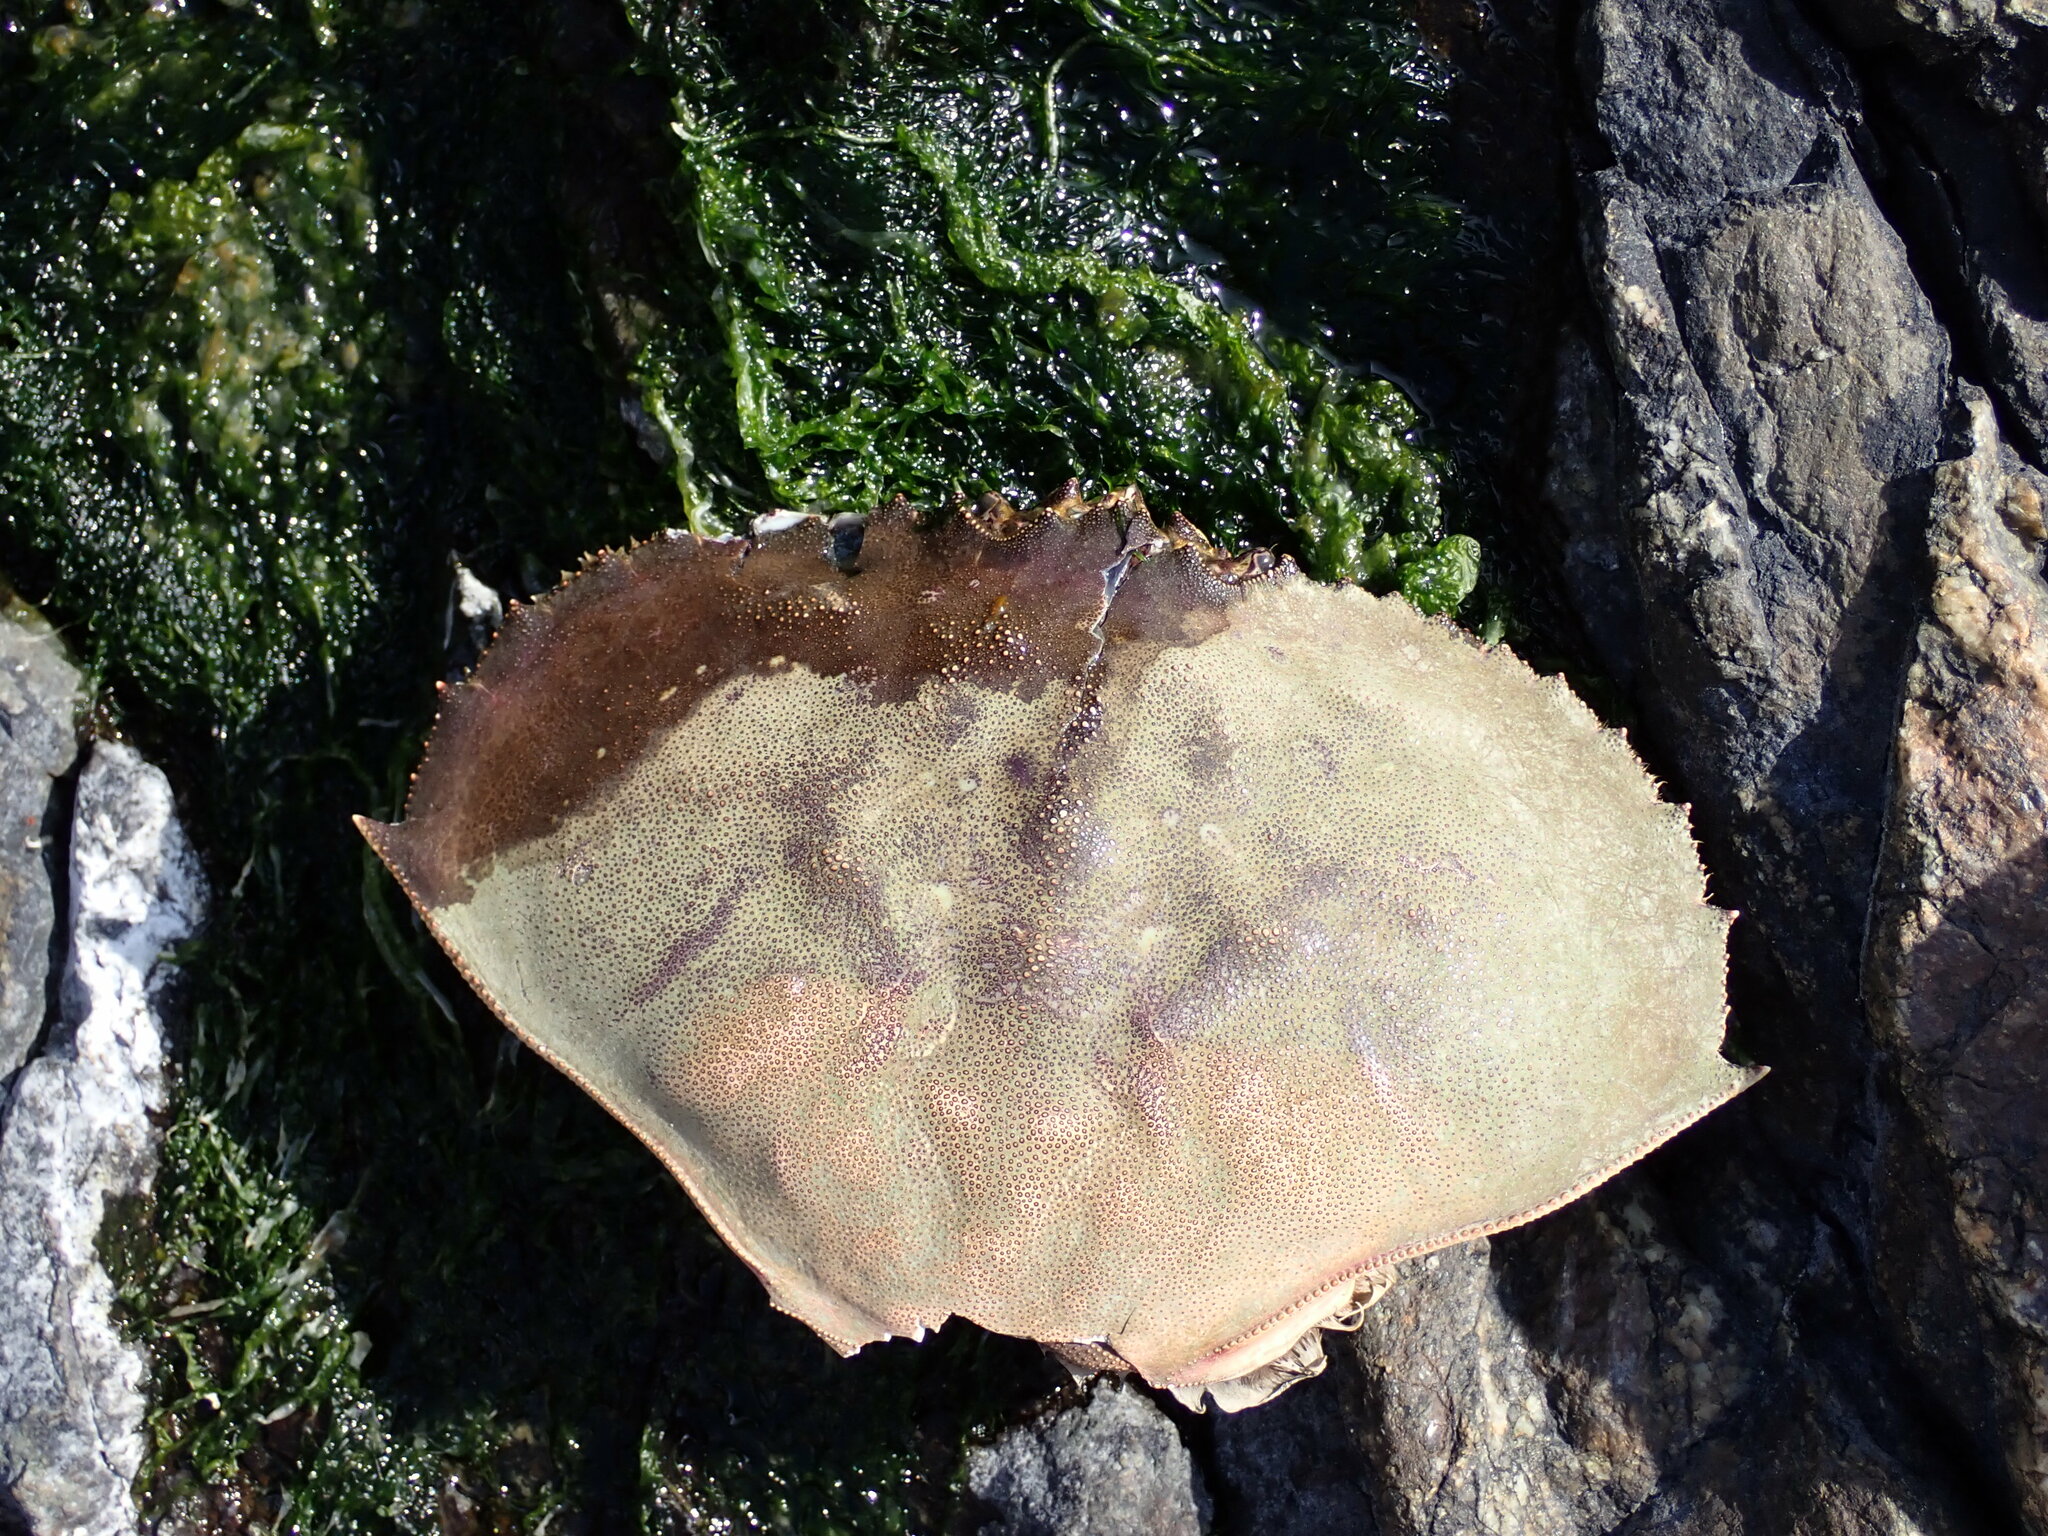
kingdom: Animalia
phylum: Arthropoda
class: Malacostraca
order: Decapoda
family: Cancridae
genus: Metacarcinus
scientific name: Metacarcinus magister
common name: Californian crab
